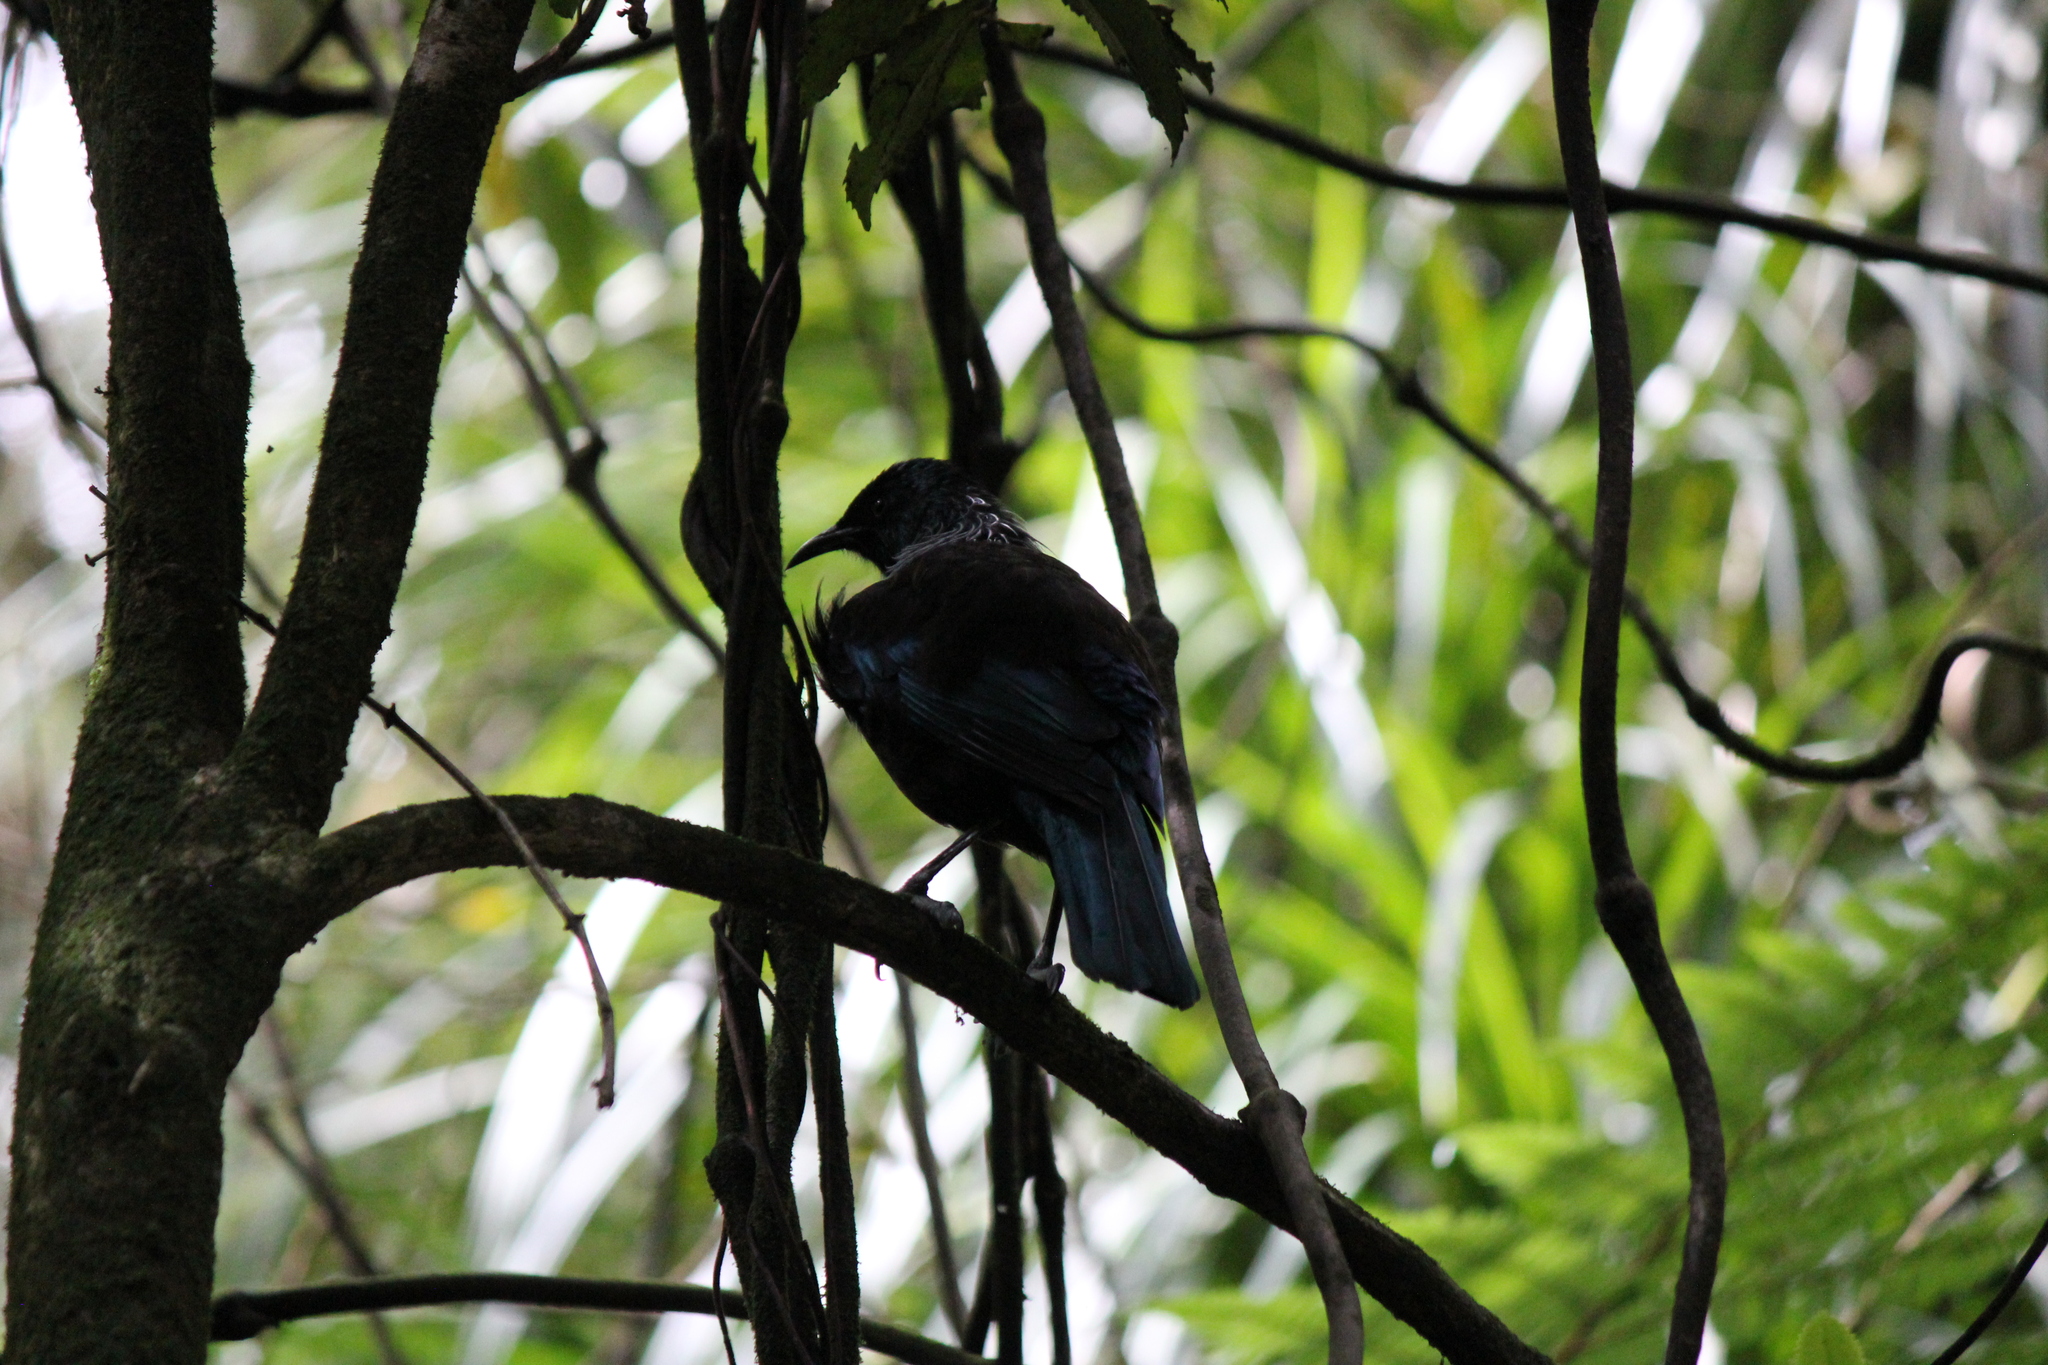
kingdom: Animalia
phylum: Chordata
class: Aves
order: Passeriformes
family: Meliphagidae
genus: Prosthemadera
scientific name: Prosthemadera novaeseelandiae
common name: Tui
